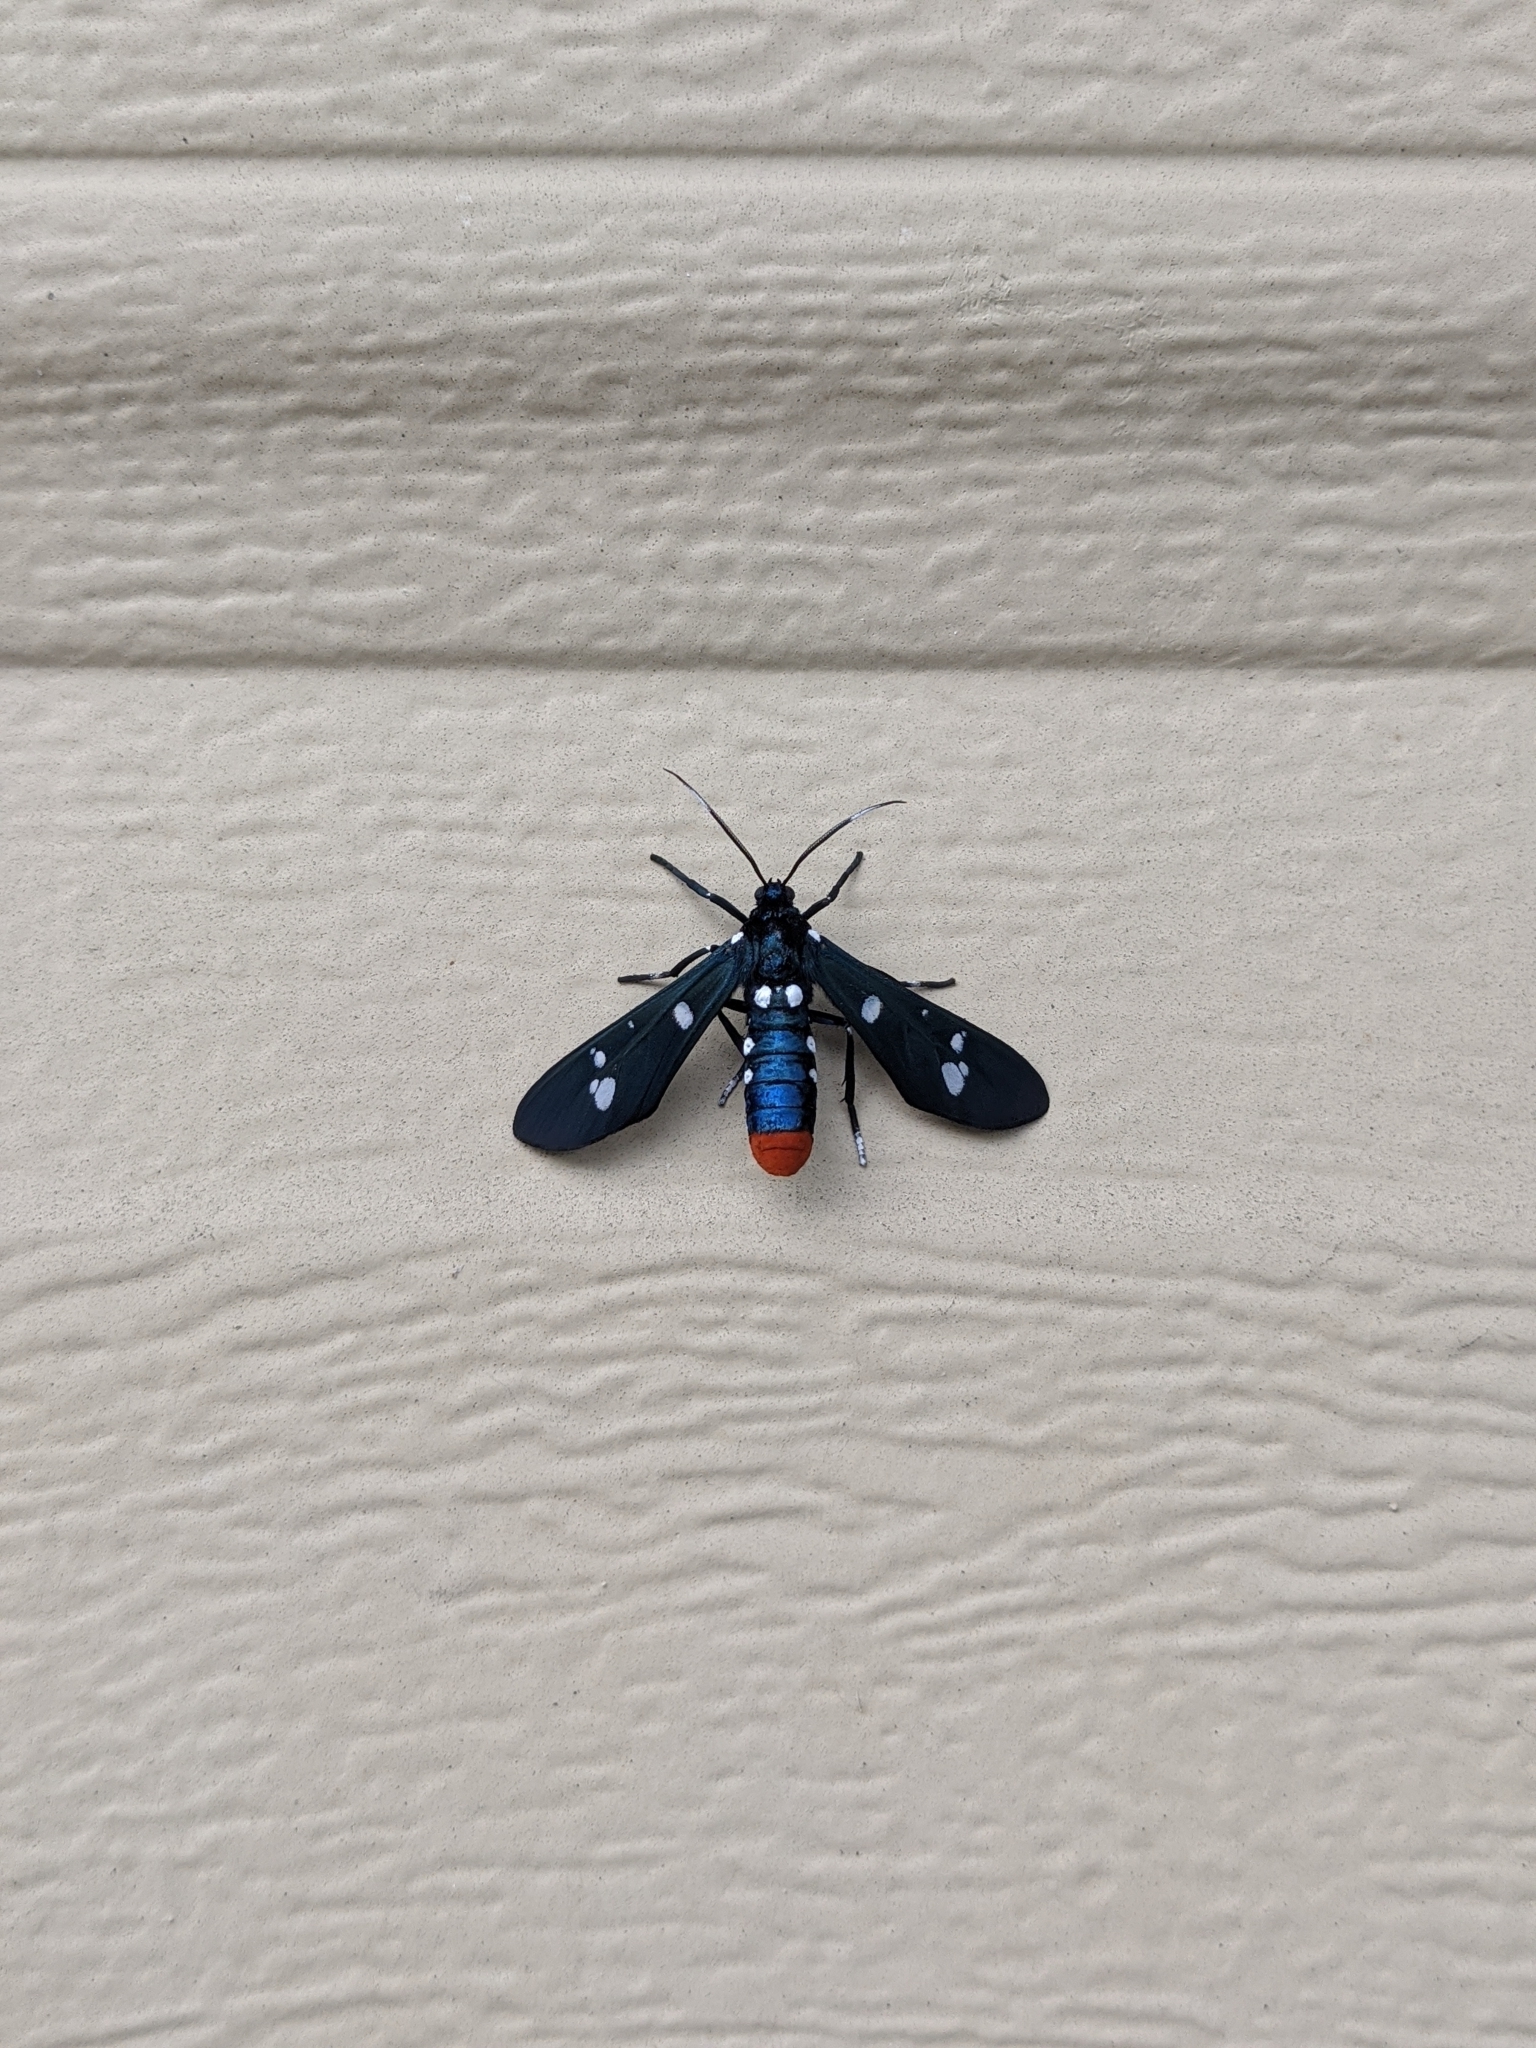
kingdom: Animalia
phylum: Arthropoda
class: Insecta
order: Lepidoptera
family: Erebidae
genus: Syntomeida
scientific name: Syntomeida epilais
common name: Polka-dot wasp moth
